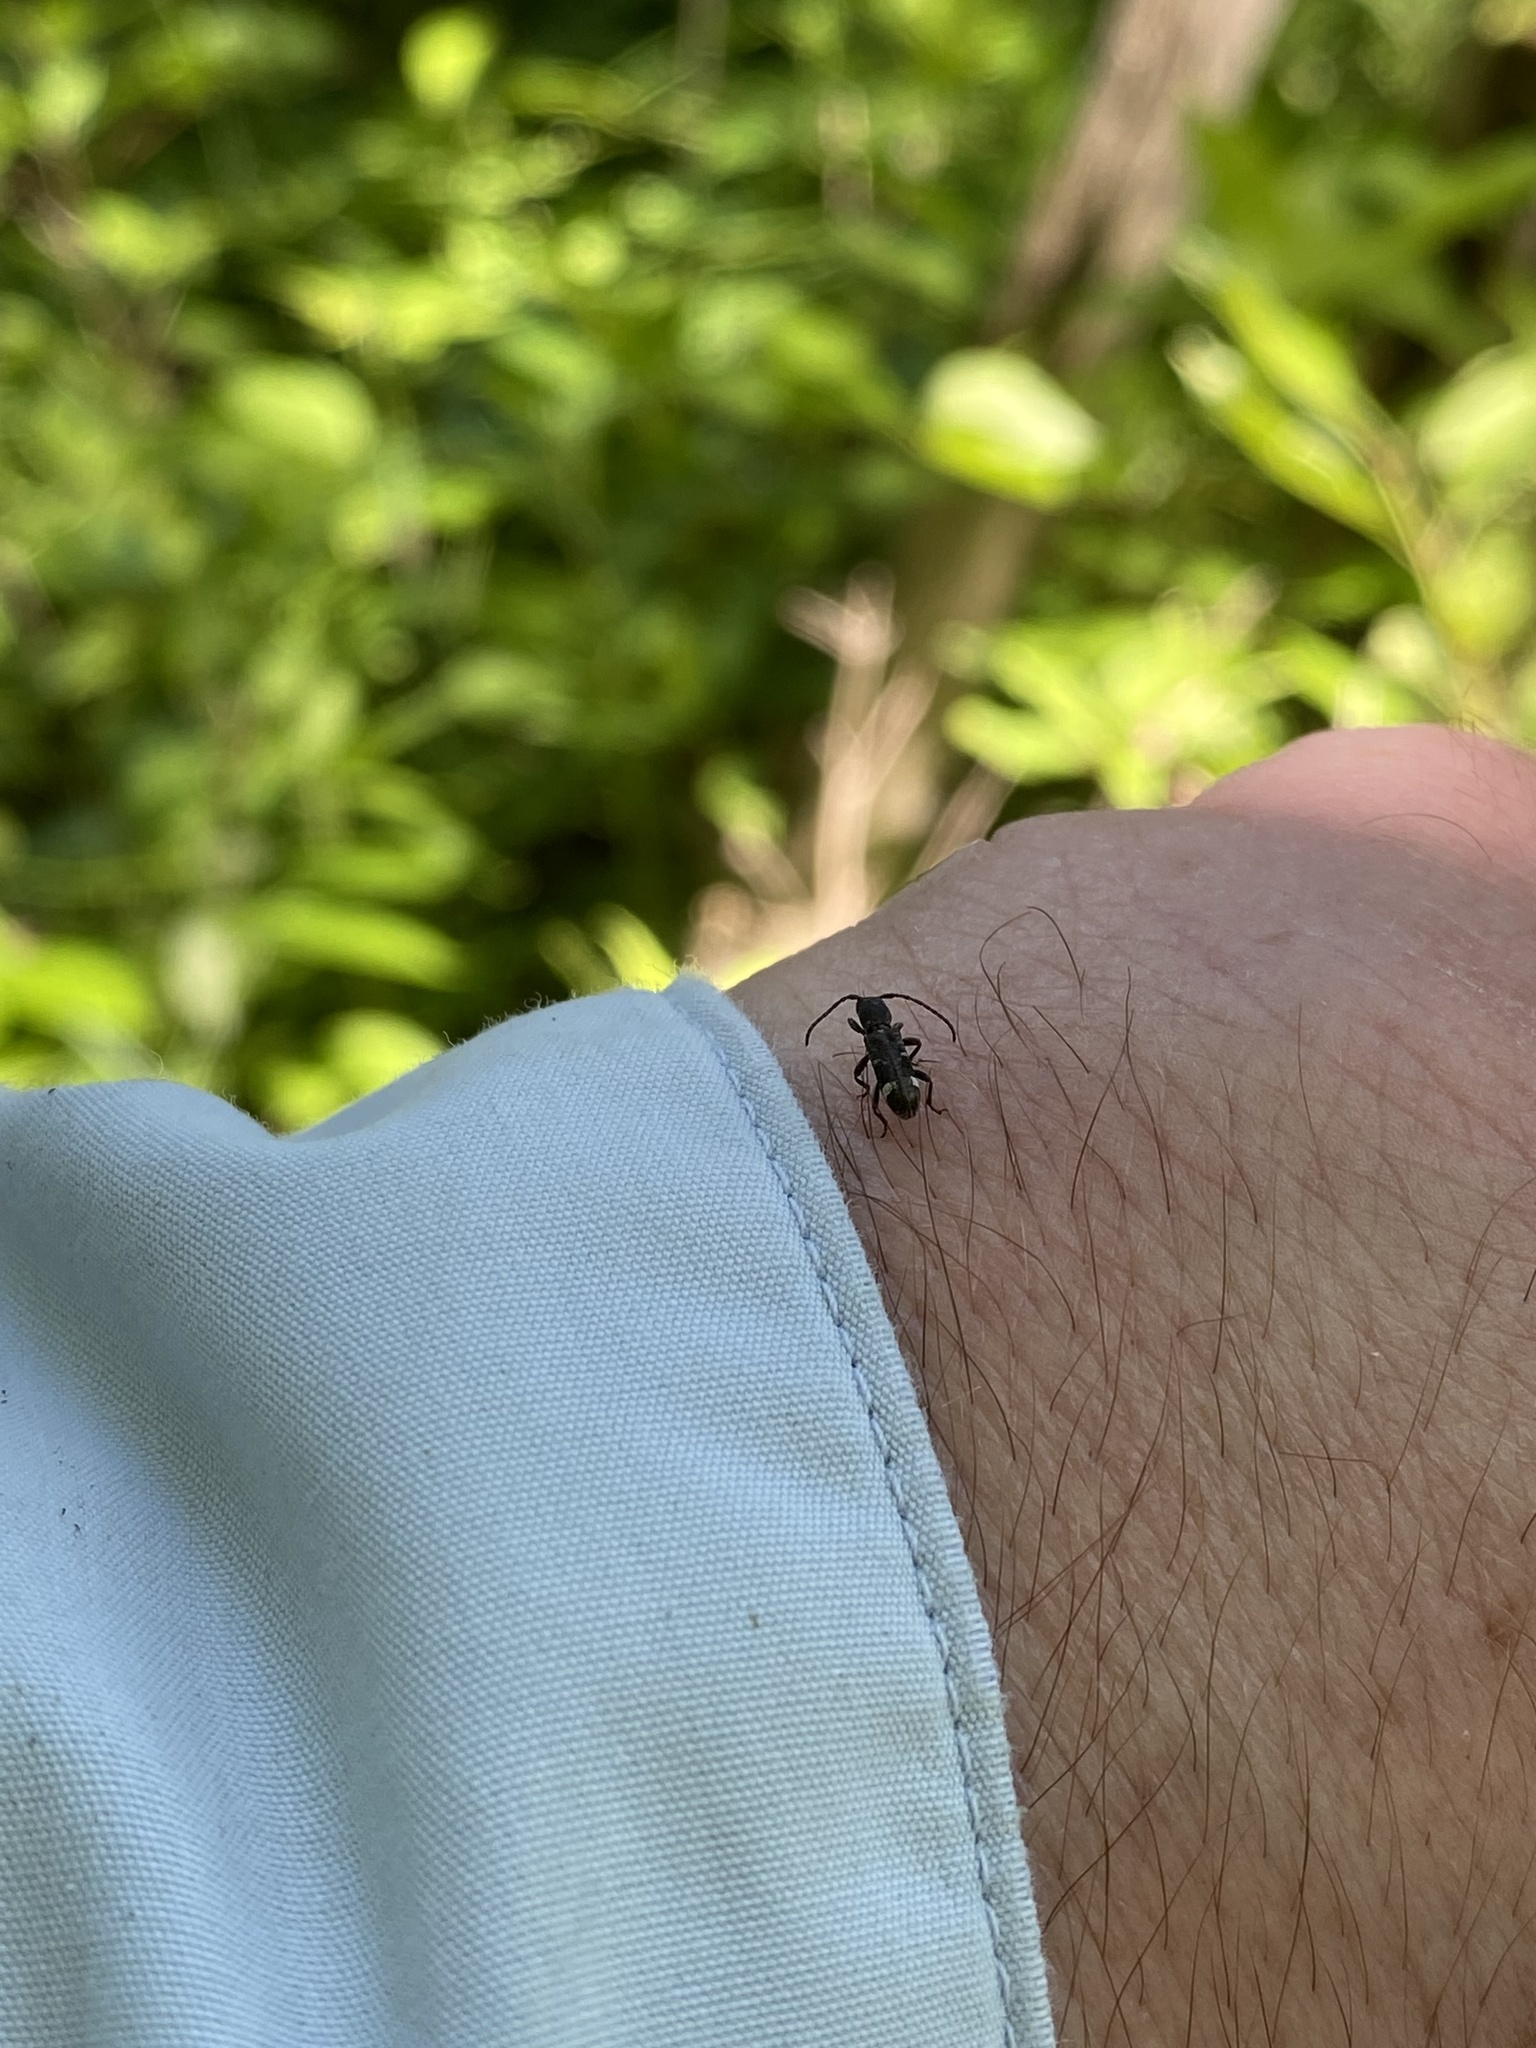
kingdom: Animalia
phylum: Arthropoda
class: Insecta
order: Coleoptera
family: Cerambycidae
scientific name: Cerambycidae
